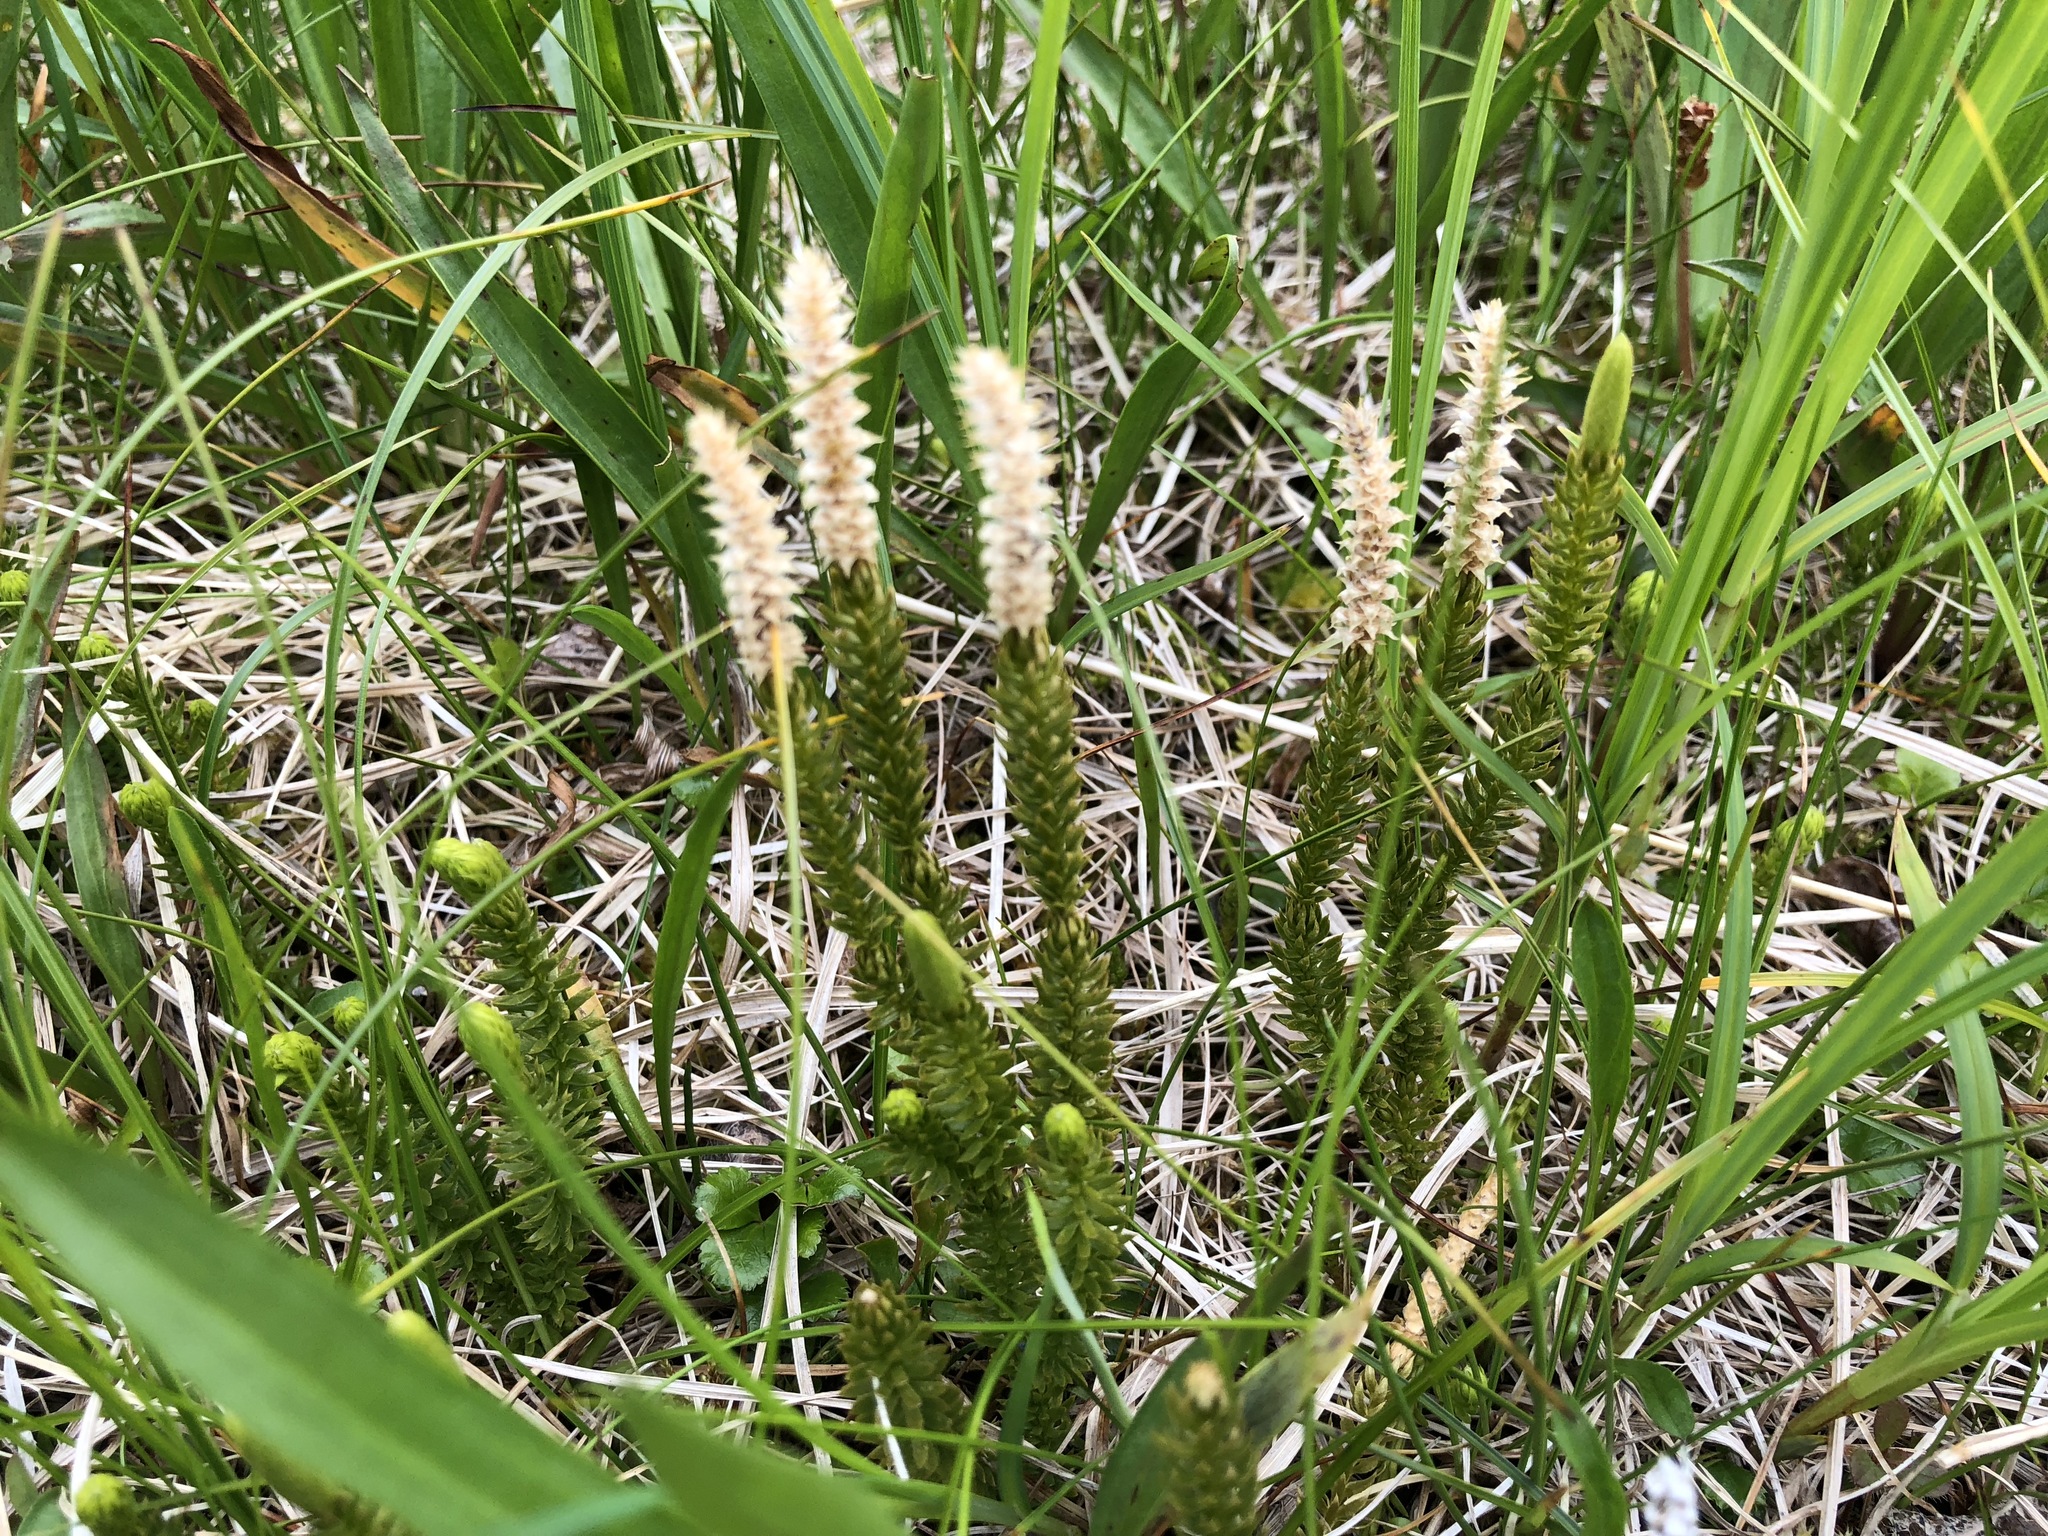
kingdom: Plantae
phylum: Tracheophyta
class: Lycopodiopsida
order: Lycopodiales
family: Lycopodiaceae
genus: Spinulum
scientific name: Spinulum annotinum
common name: Interrupted club-moss
